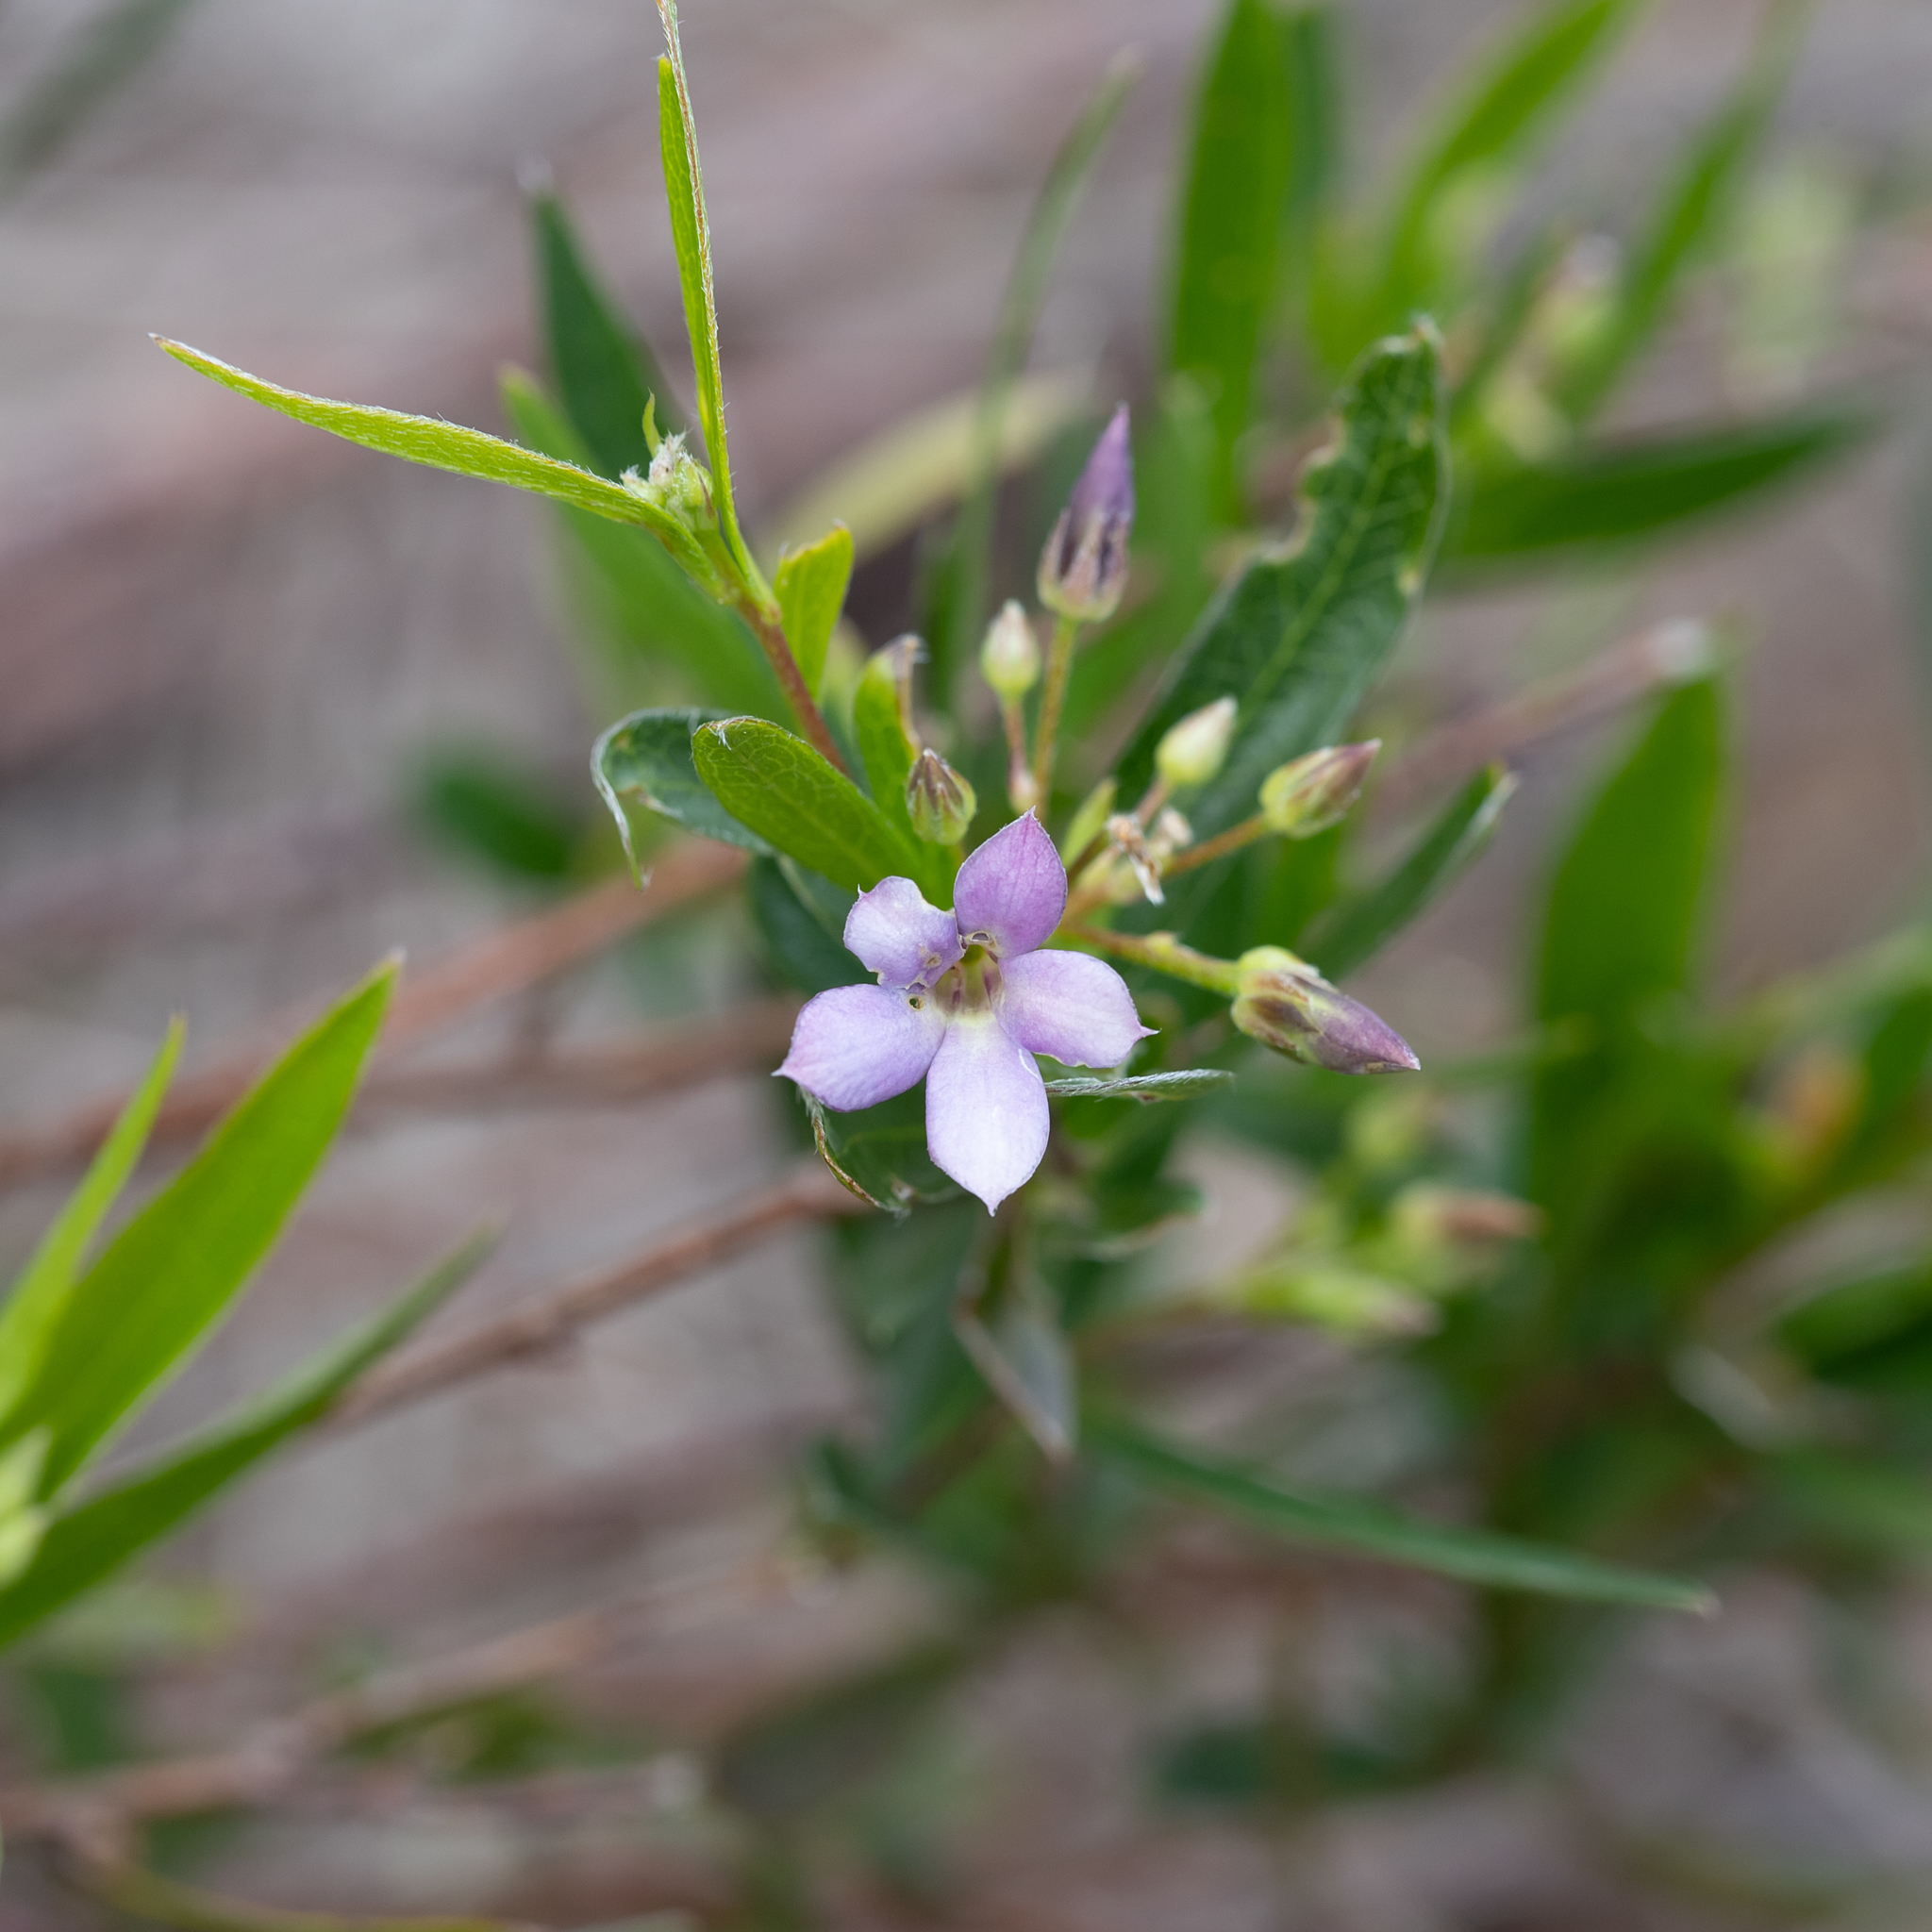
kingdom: Plantae
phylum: Tracheophyta
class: Magnoliopsida
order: Apiales
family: Pittosporaceae
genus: Billardiera
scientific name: Billardiera cymosa
